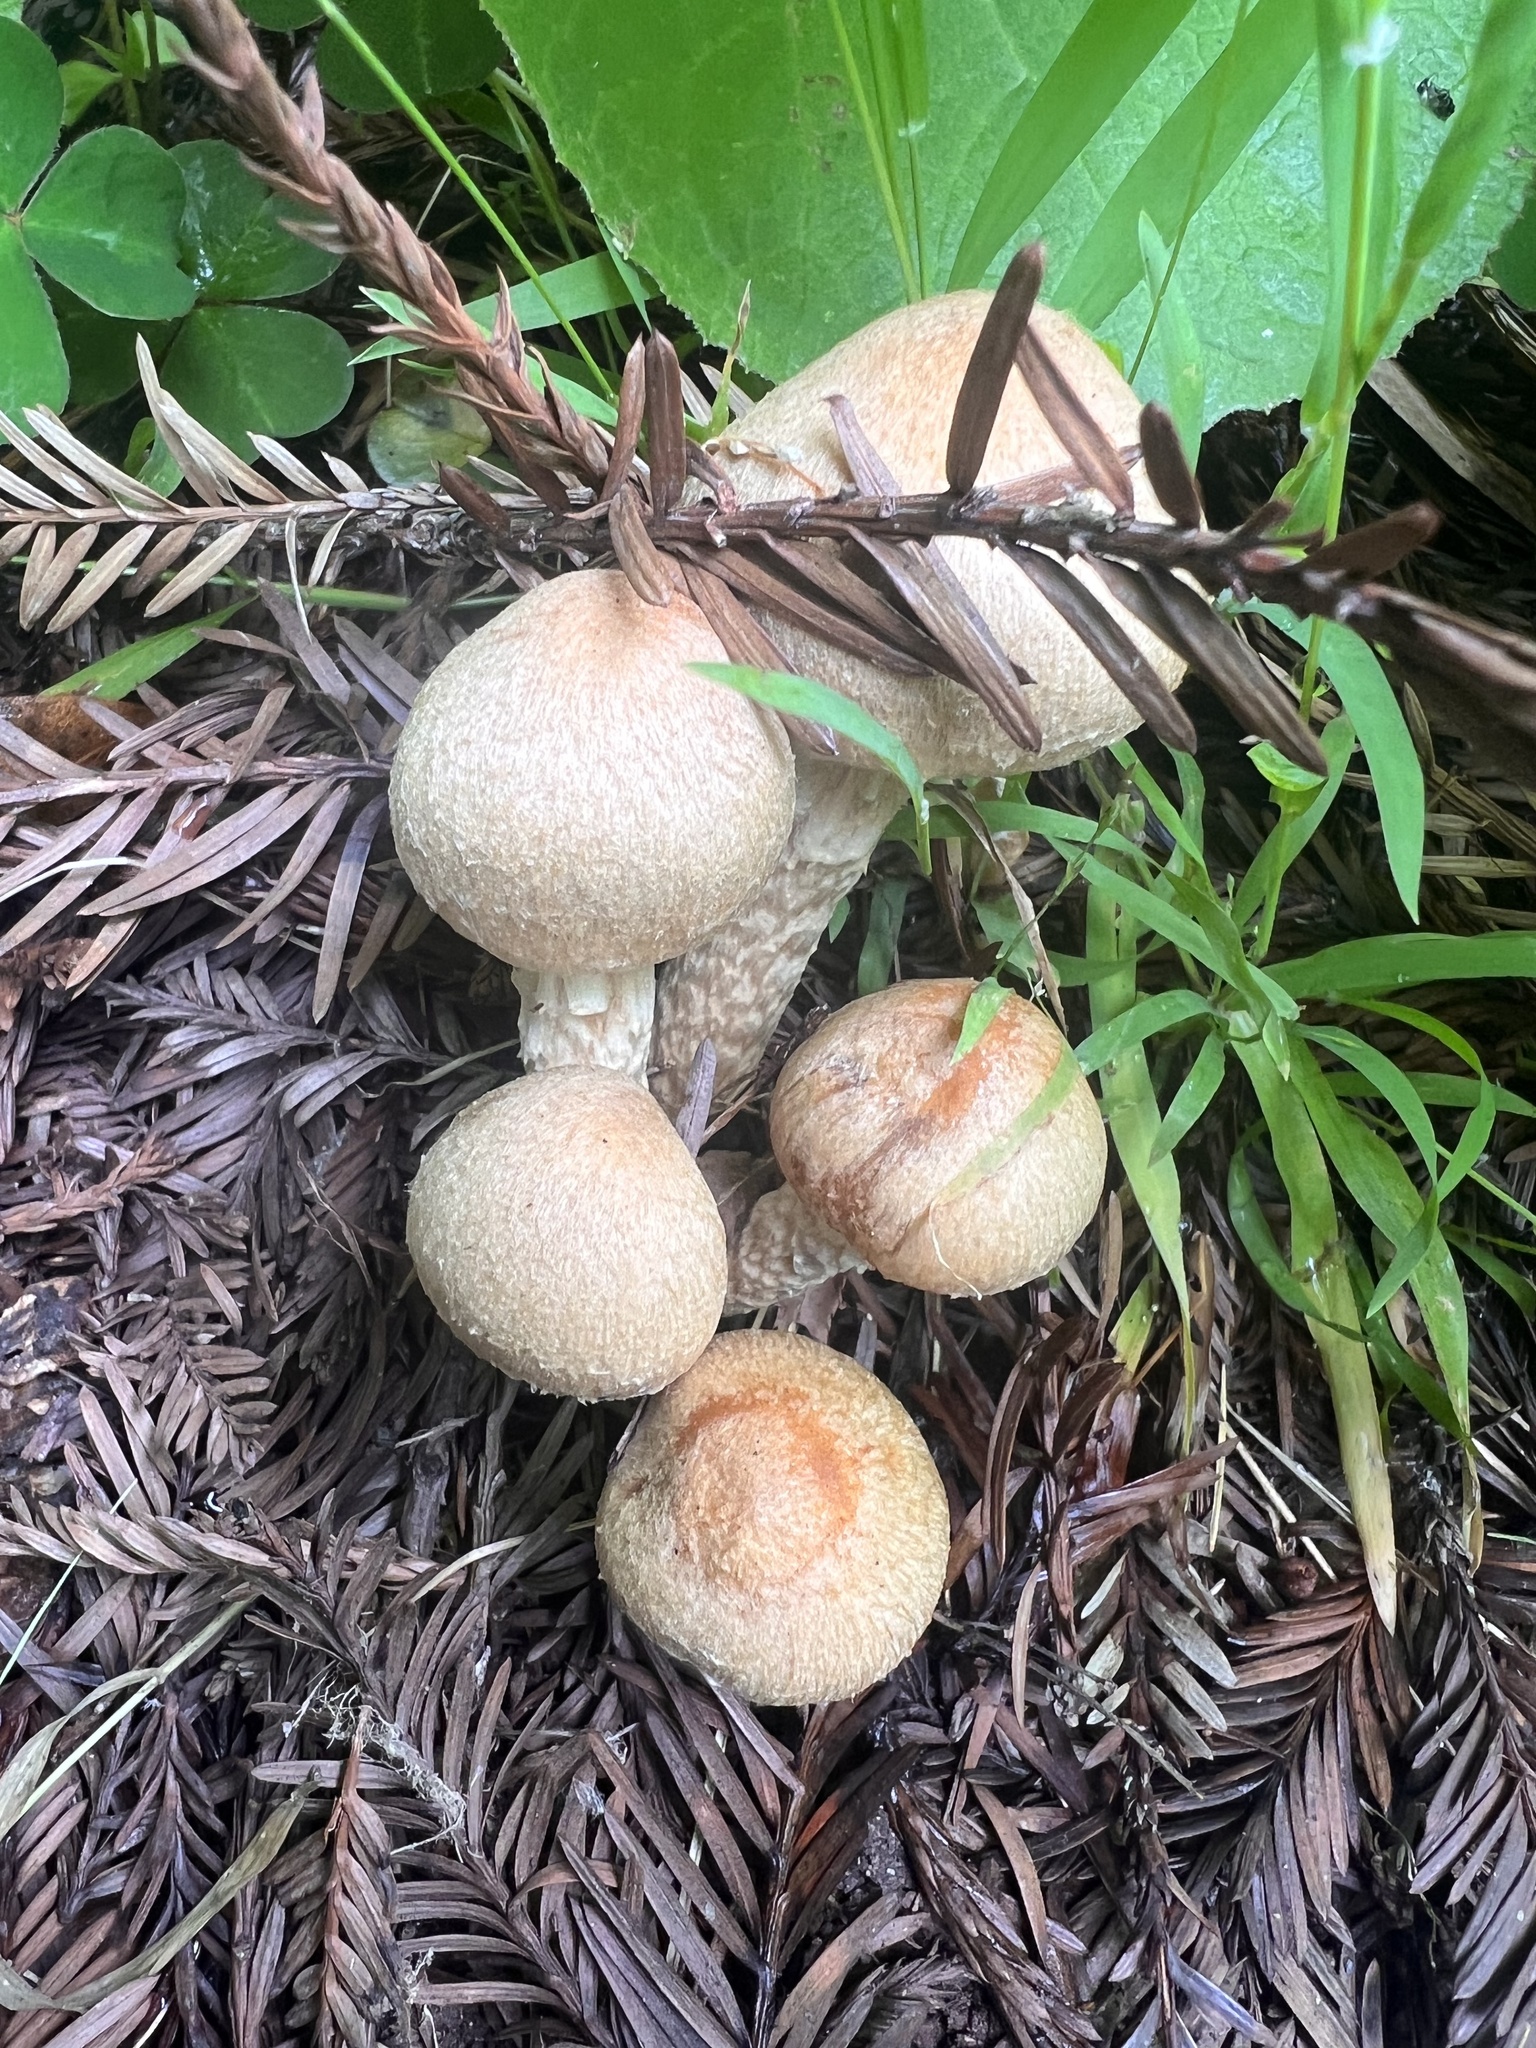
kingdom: Fungi
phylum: Basidiomycota
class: Agaricomycetes
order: Agaricales
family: Strophariaceae
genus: Stropharia
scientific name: Stropharia ambigua
